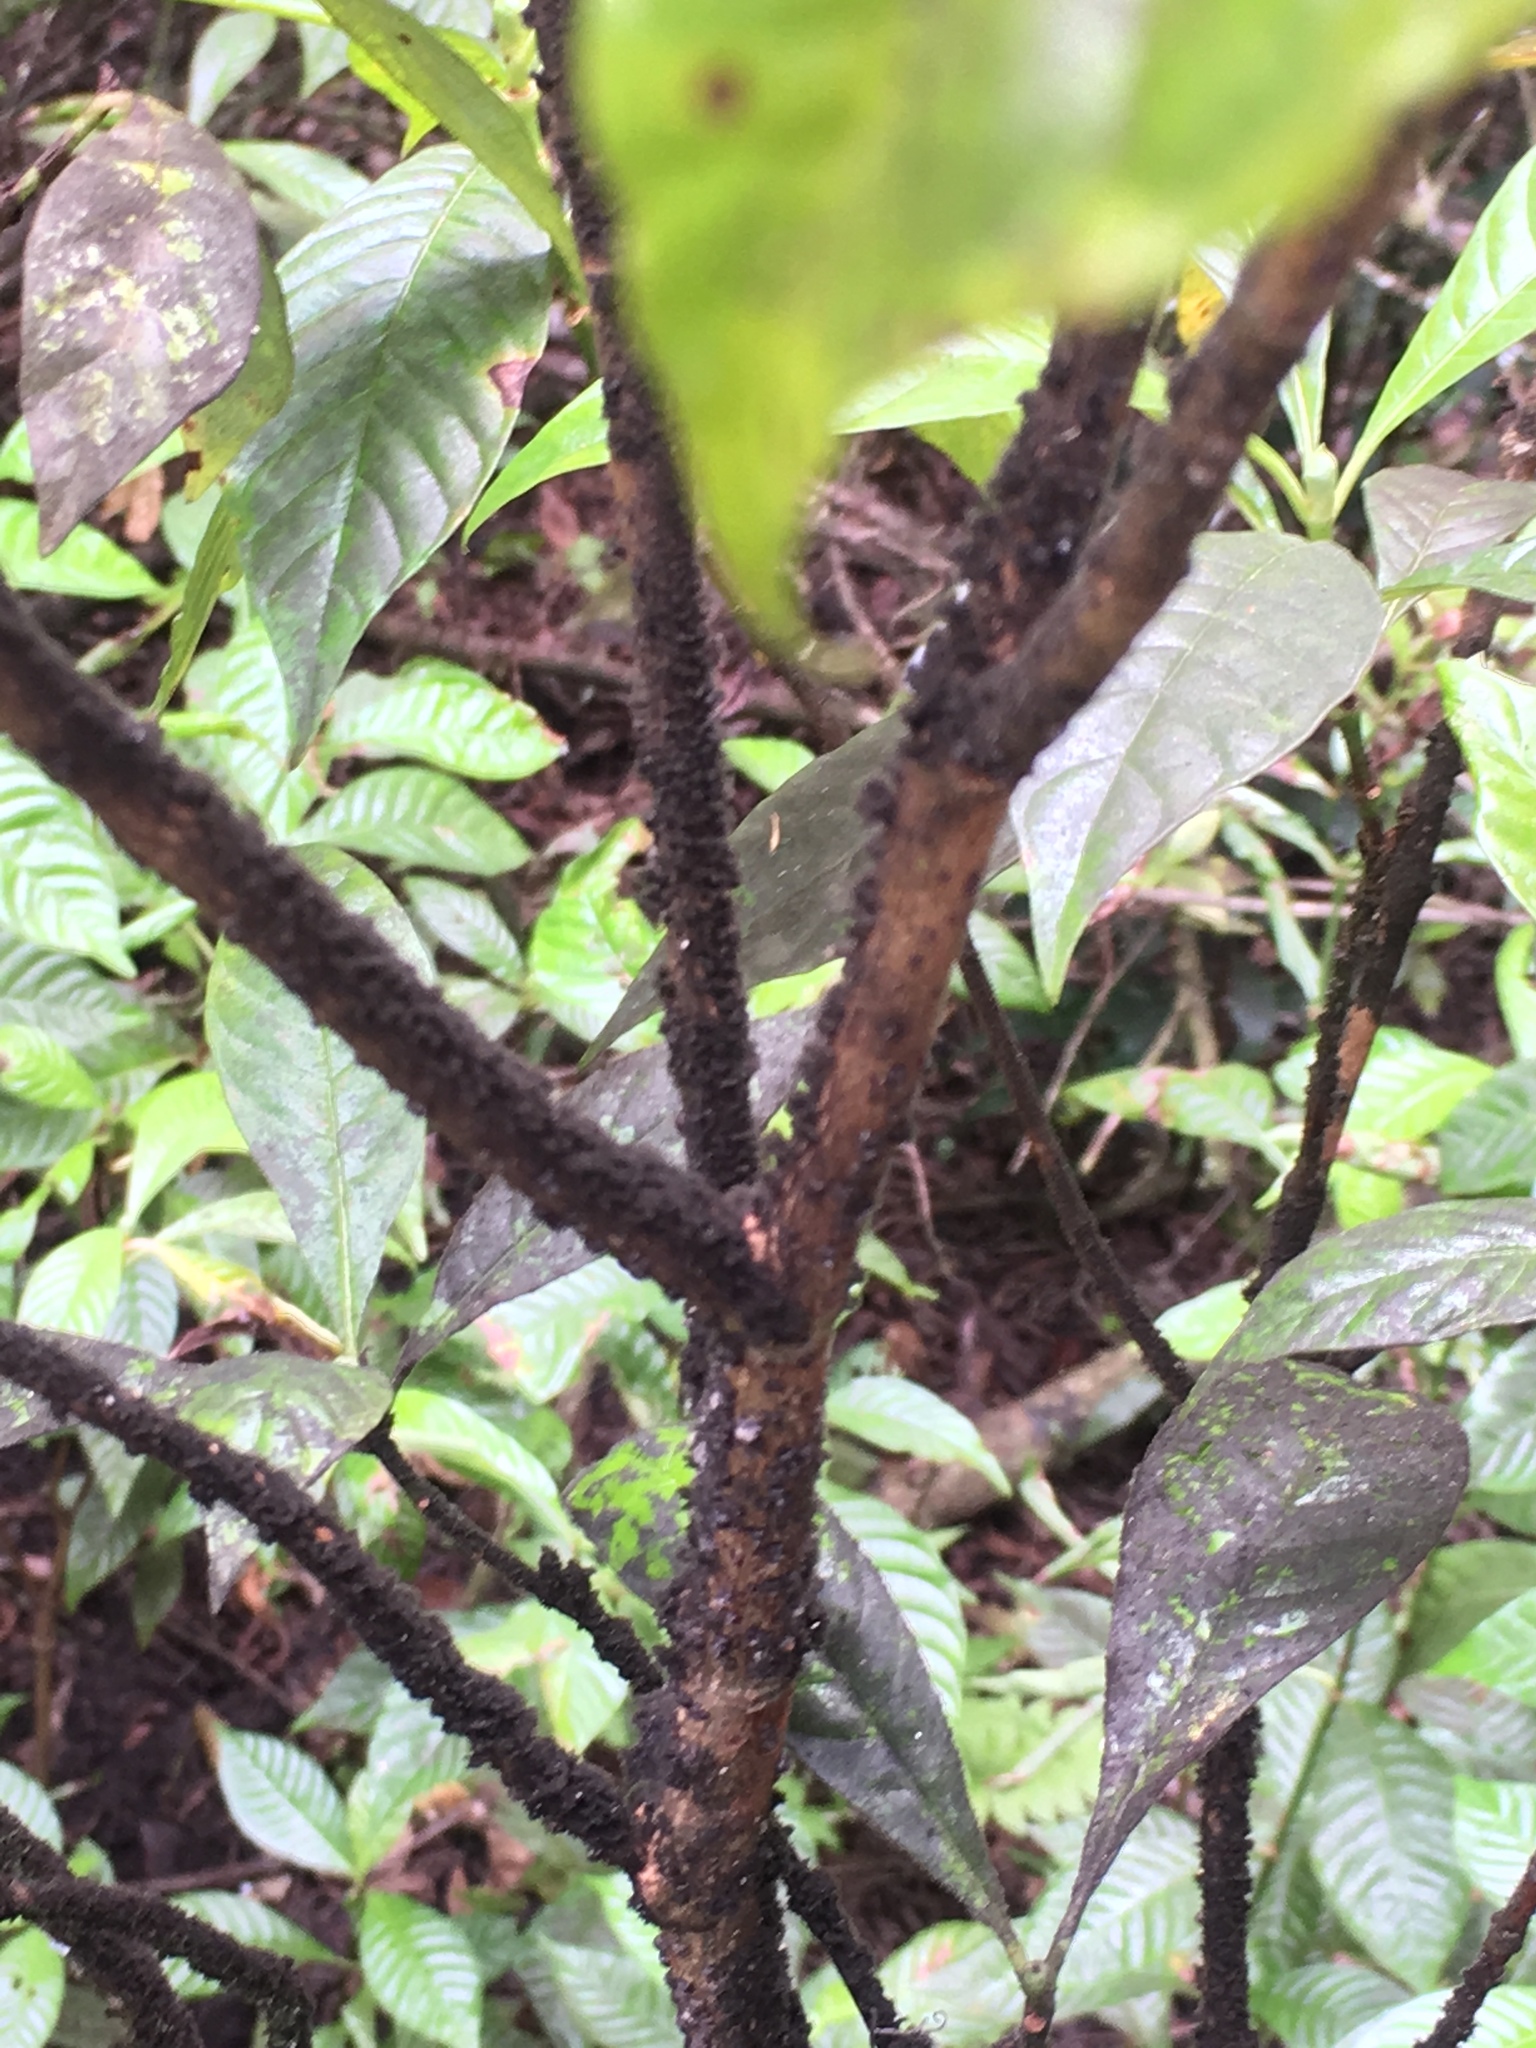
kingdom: Animalia
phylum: Arthropoda
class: Insecta
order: Hemiptera
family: Kerriidae
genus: Paratachardina
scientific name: Paratachardina pseudolobata
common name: Lobate lac scale
